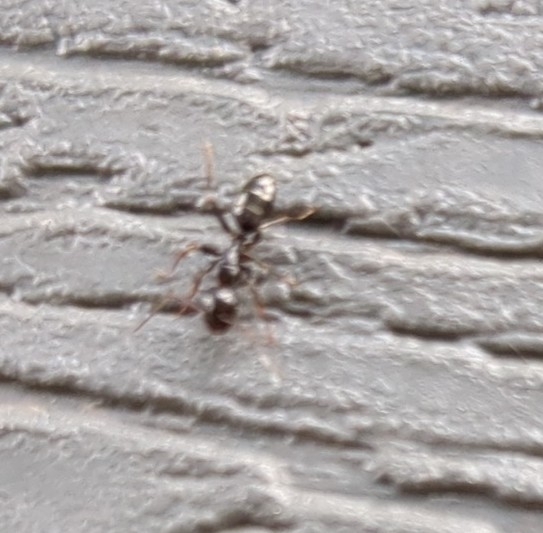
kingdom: Animalia
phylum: Arthropoda
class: Insecta
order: Hymenoptera
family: Formicidae
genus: Camponotus
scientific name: Camponotus nearcticus
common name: Smaller carpenter ant
